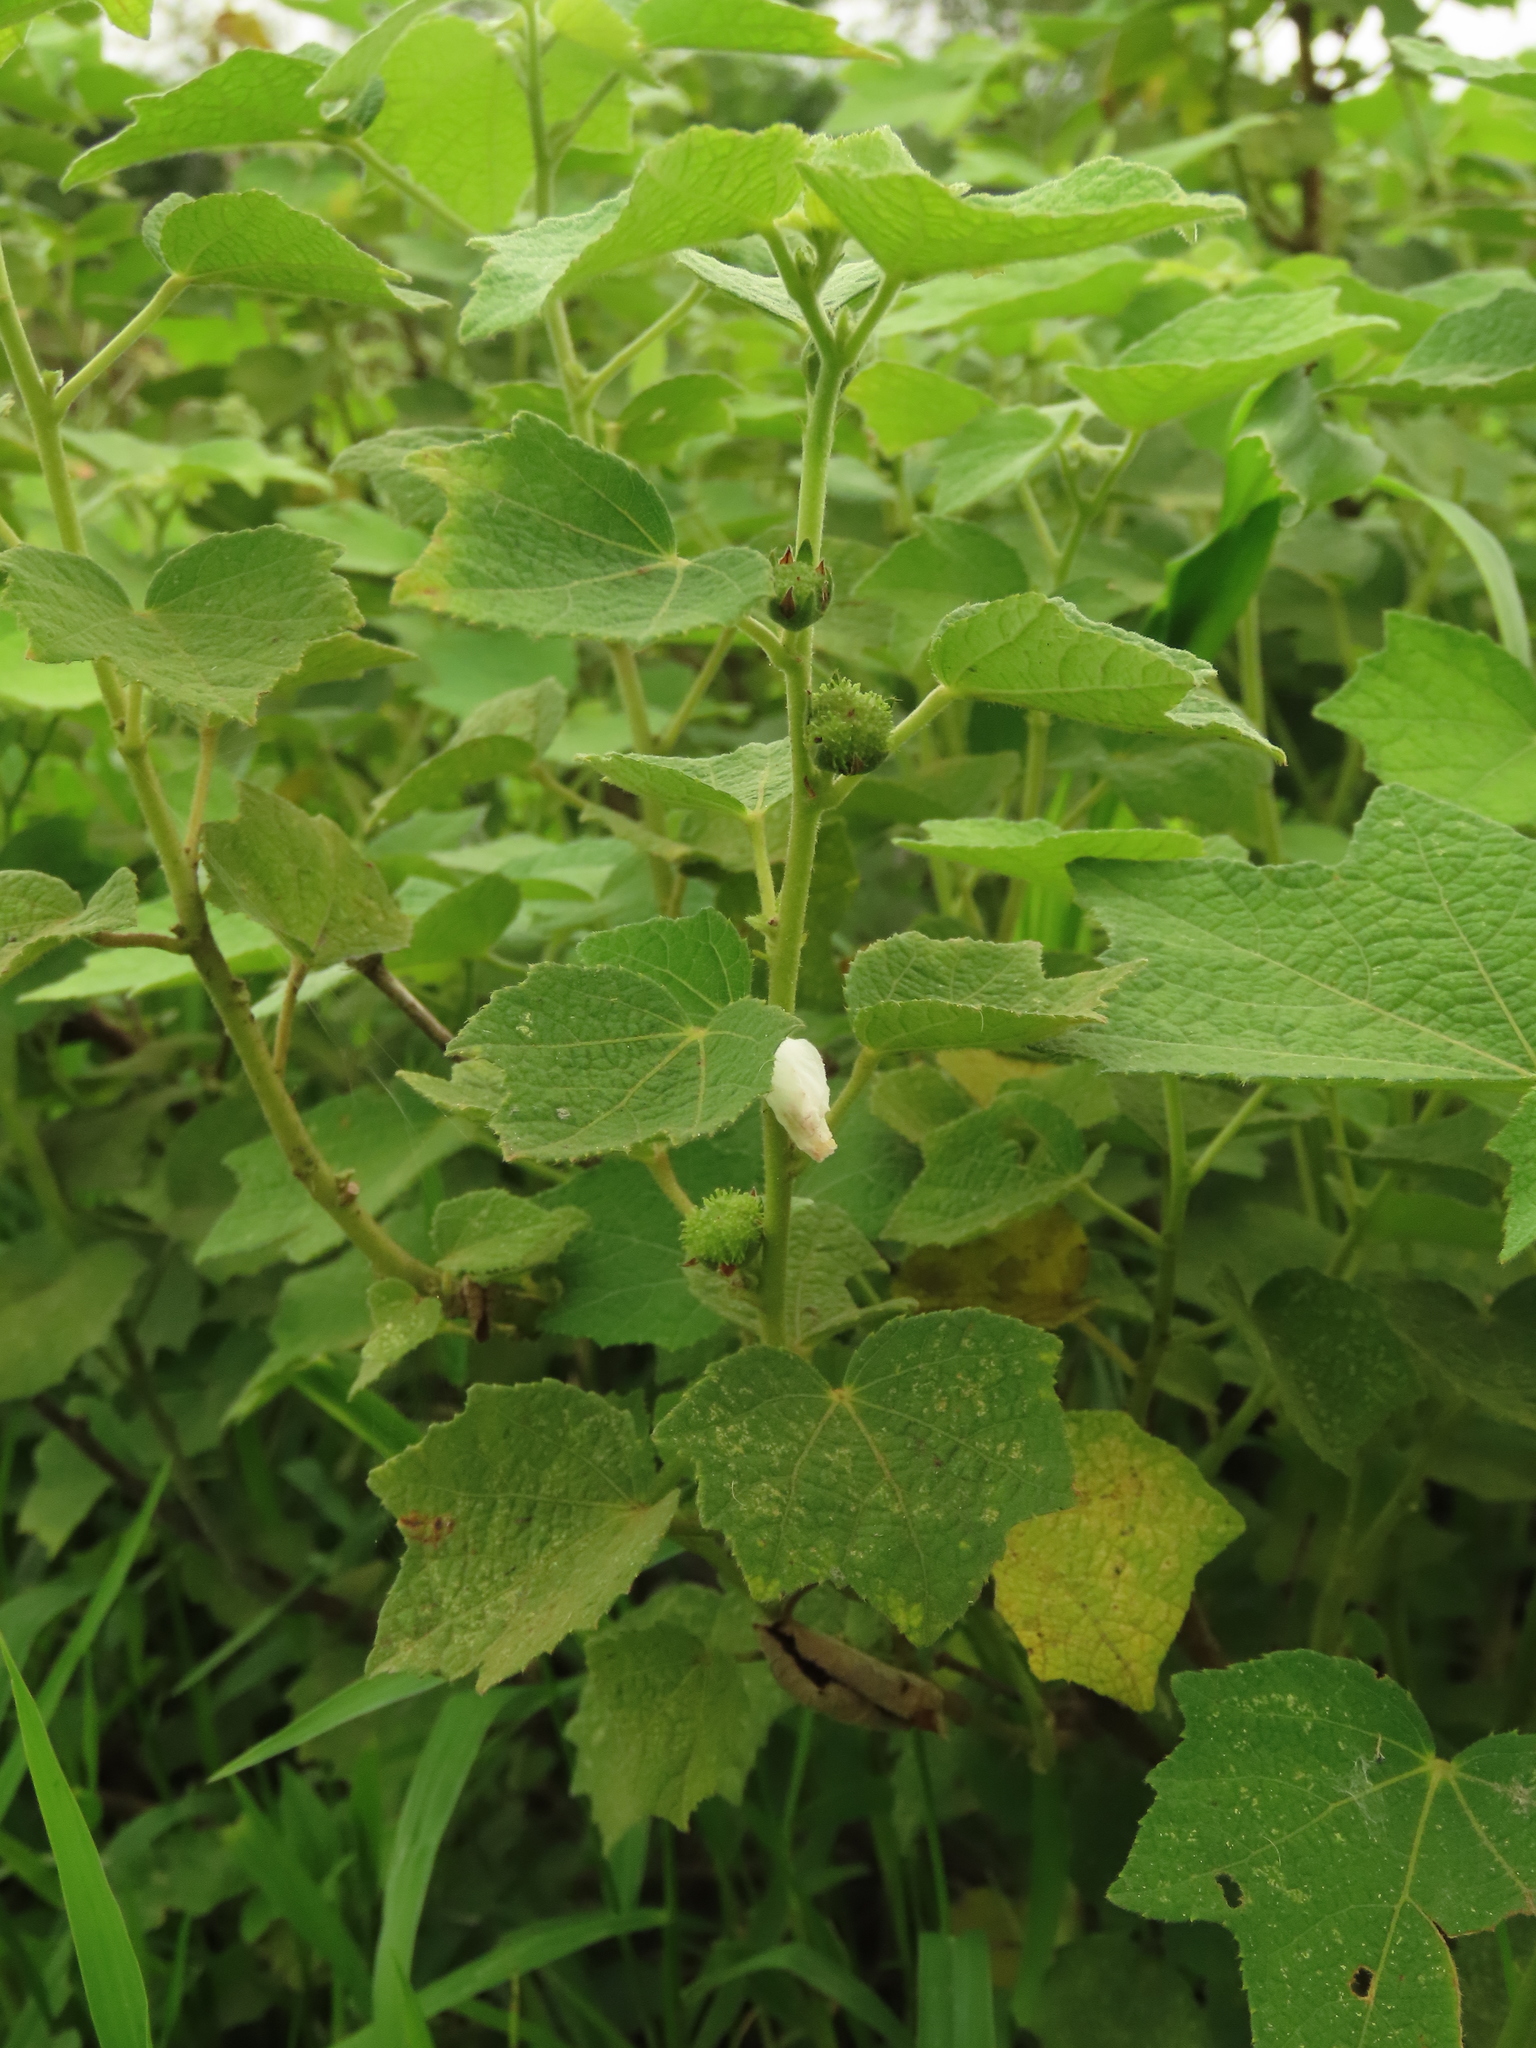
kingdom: Plantae
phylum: Tracheophyta
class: Magnoliopsida
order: Malvales
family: Malvaceae
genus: Urena
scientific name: Urena lobata
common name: Caesarweed
